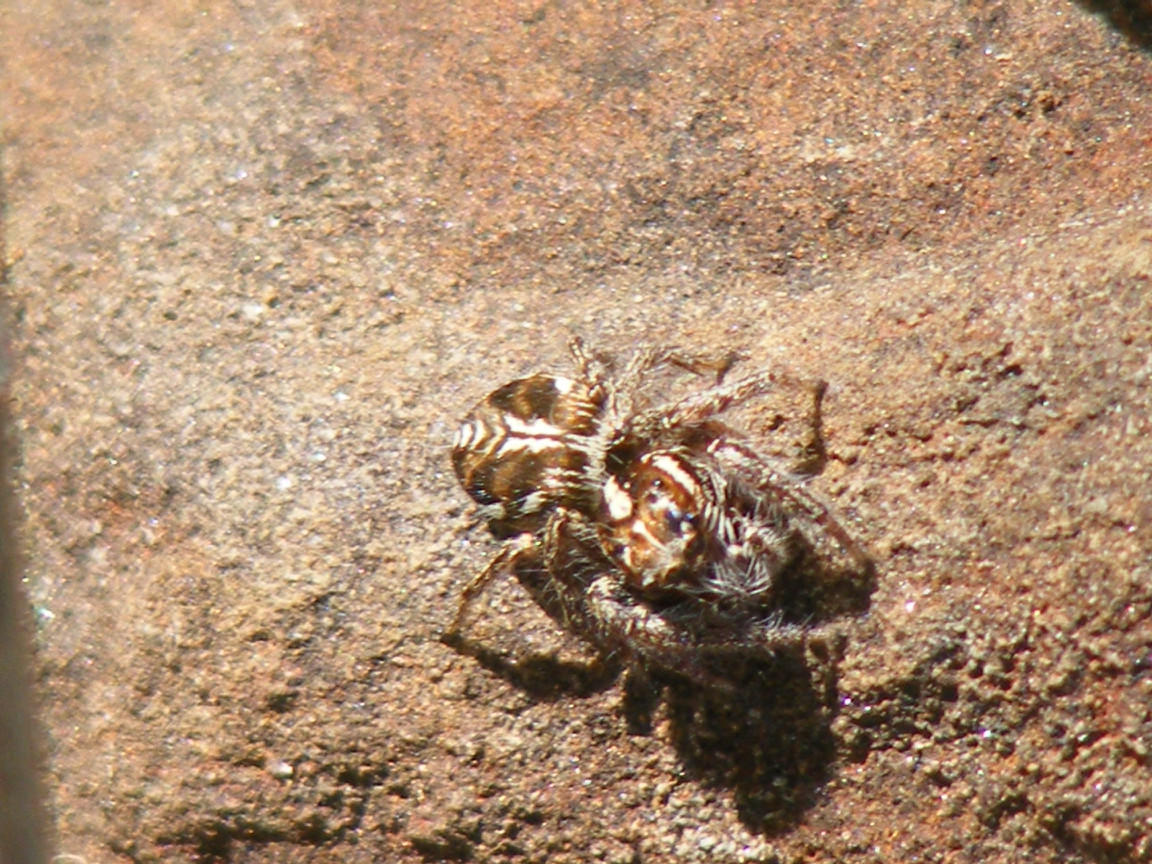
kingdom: Animalia
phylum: Arthropoda
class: Arachnida
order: Araneae
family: Salticidae
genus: Hyllus
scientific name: Hyllus argyrotoxus
